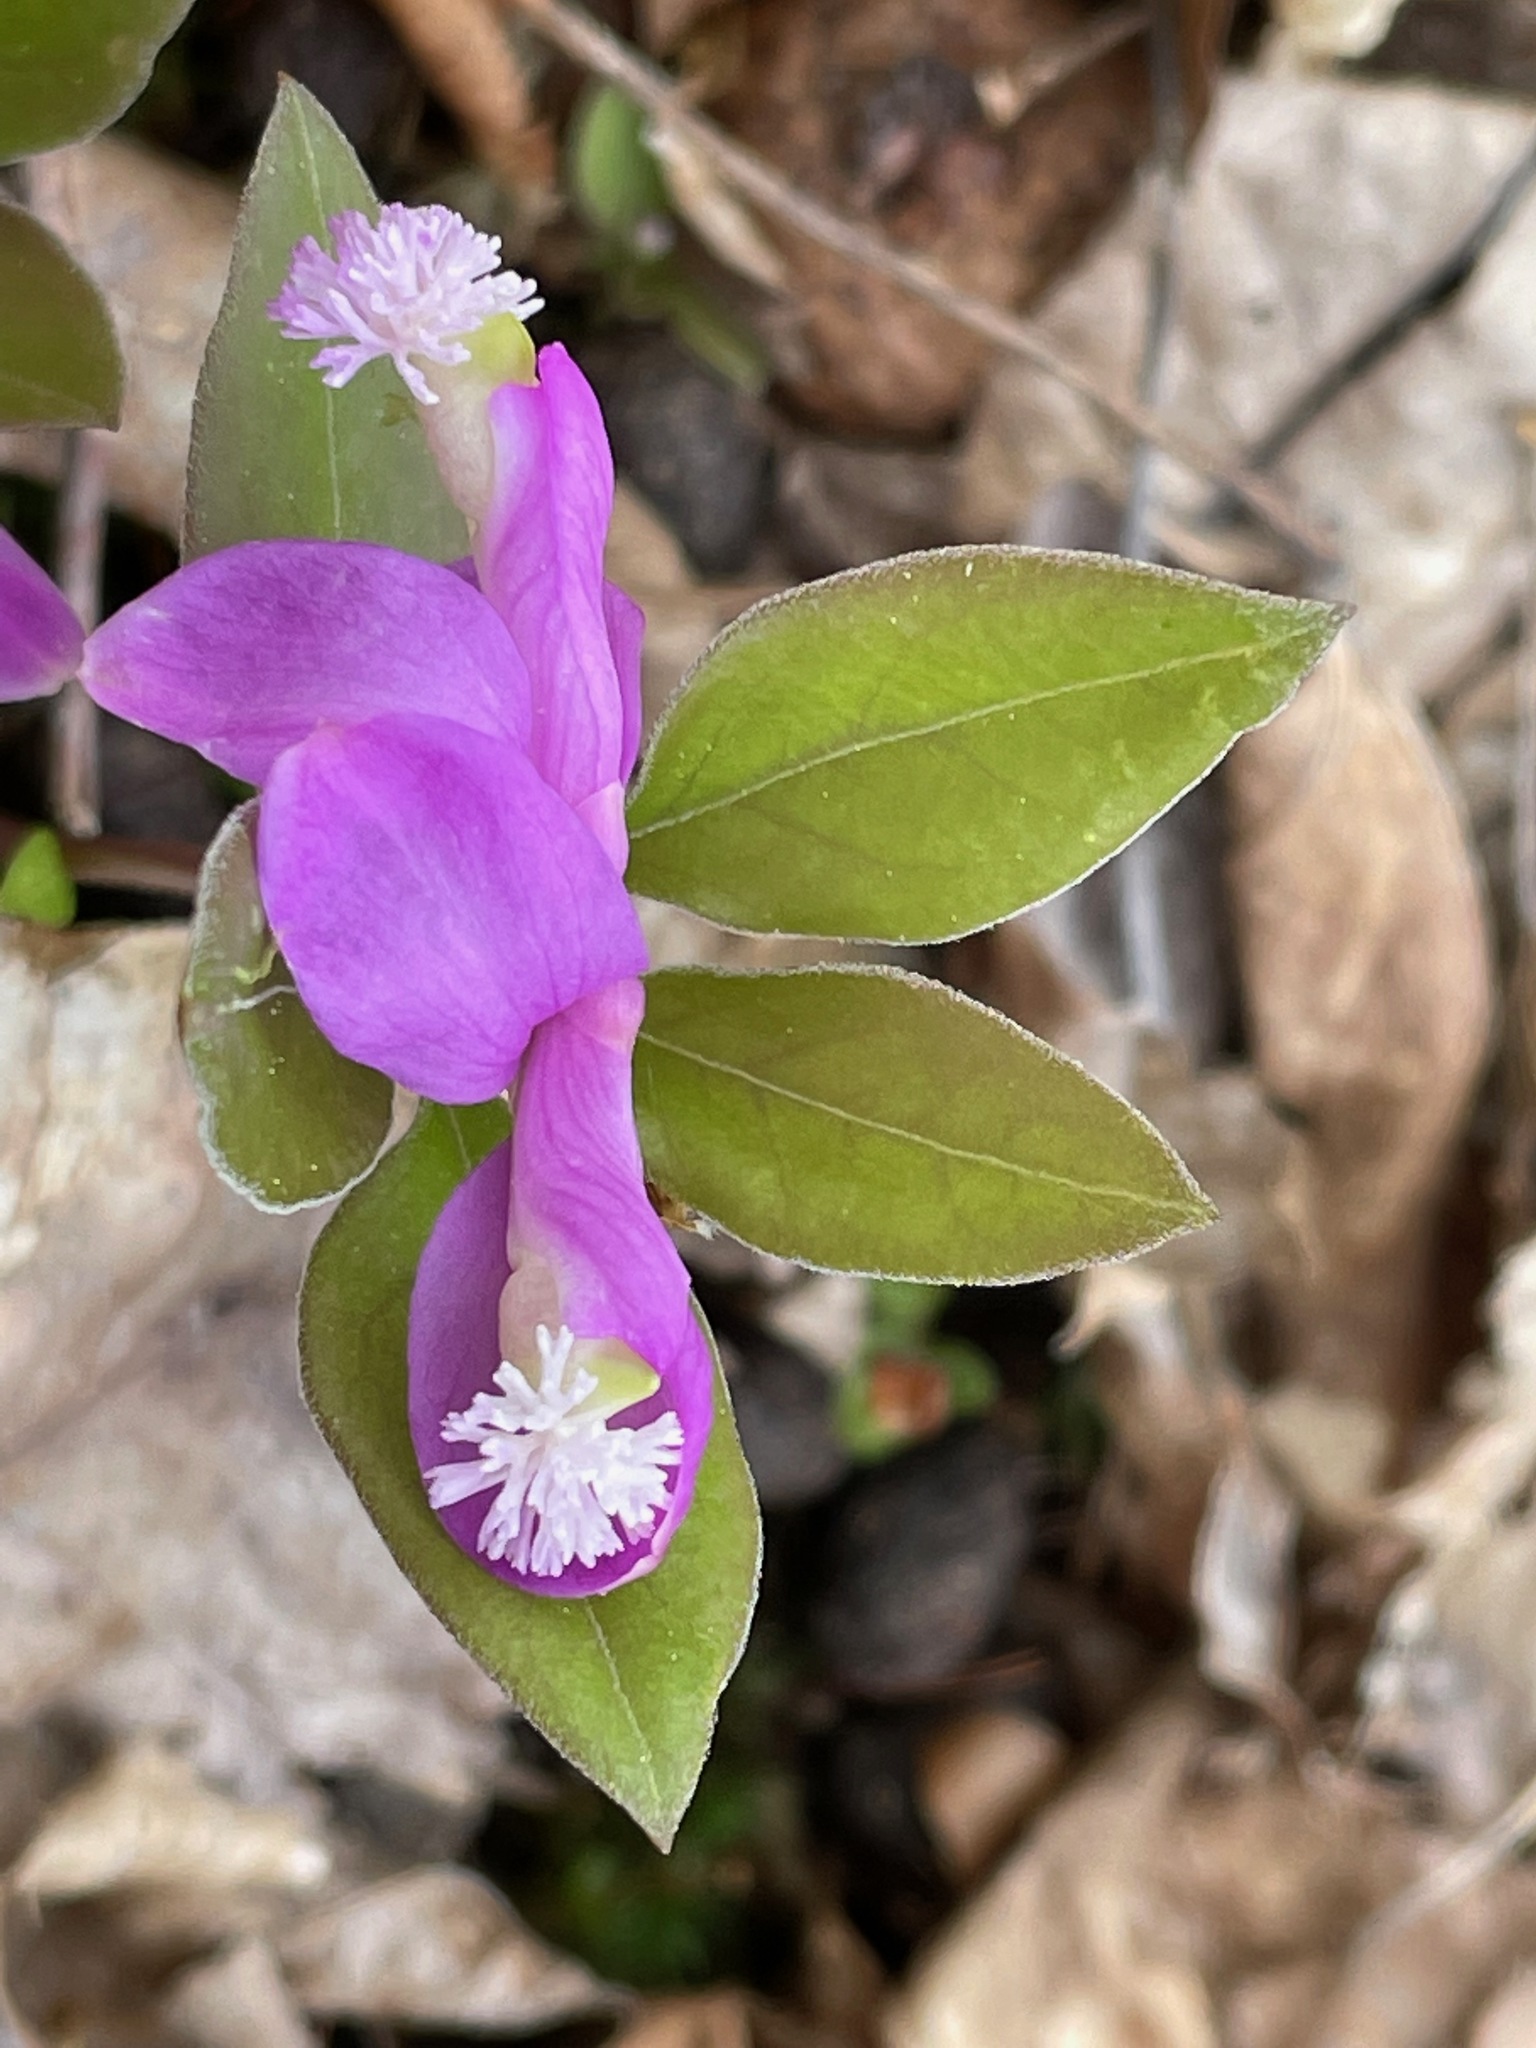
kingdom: Plantae
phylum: Tracheophyta
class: Magnoliopsida
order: Fabales
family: Polygalaceae
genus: Polygaloides
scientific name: Polygaloides paucifolia
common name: Bird-on-the-wing
